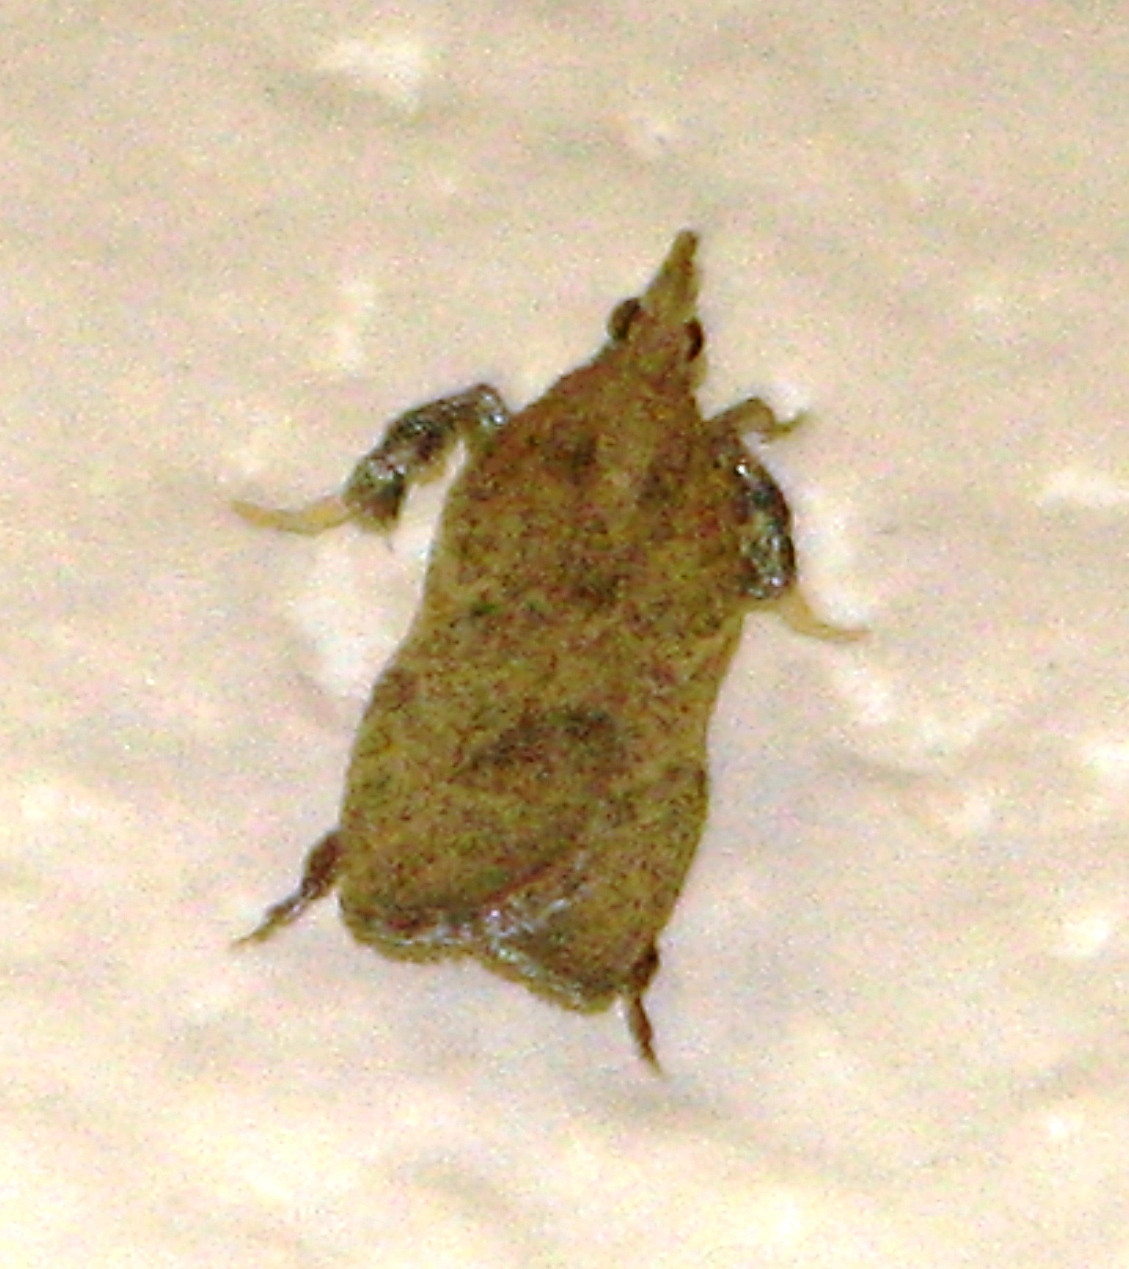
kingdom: Animalia
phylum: Arthropoda
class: Insecta
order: Lepidoptera
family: Pyralidae
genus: Negalasa
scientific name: Negalasa fumalis
